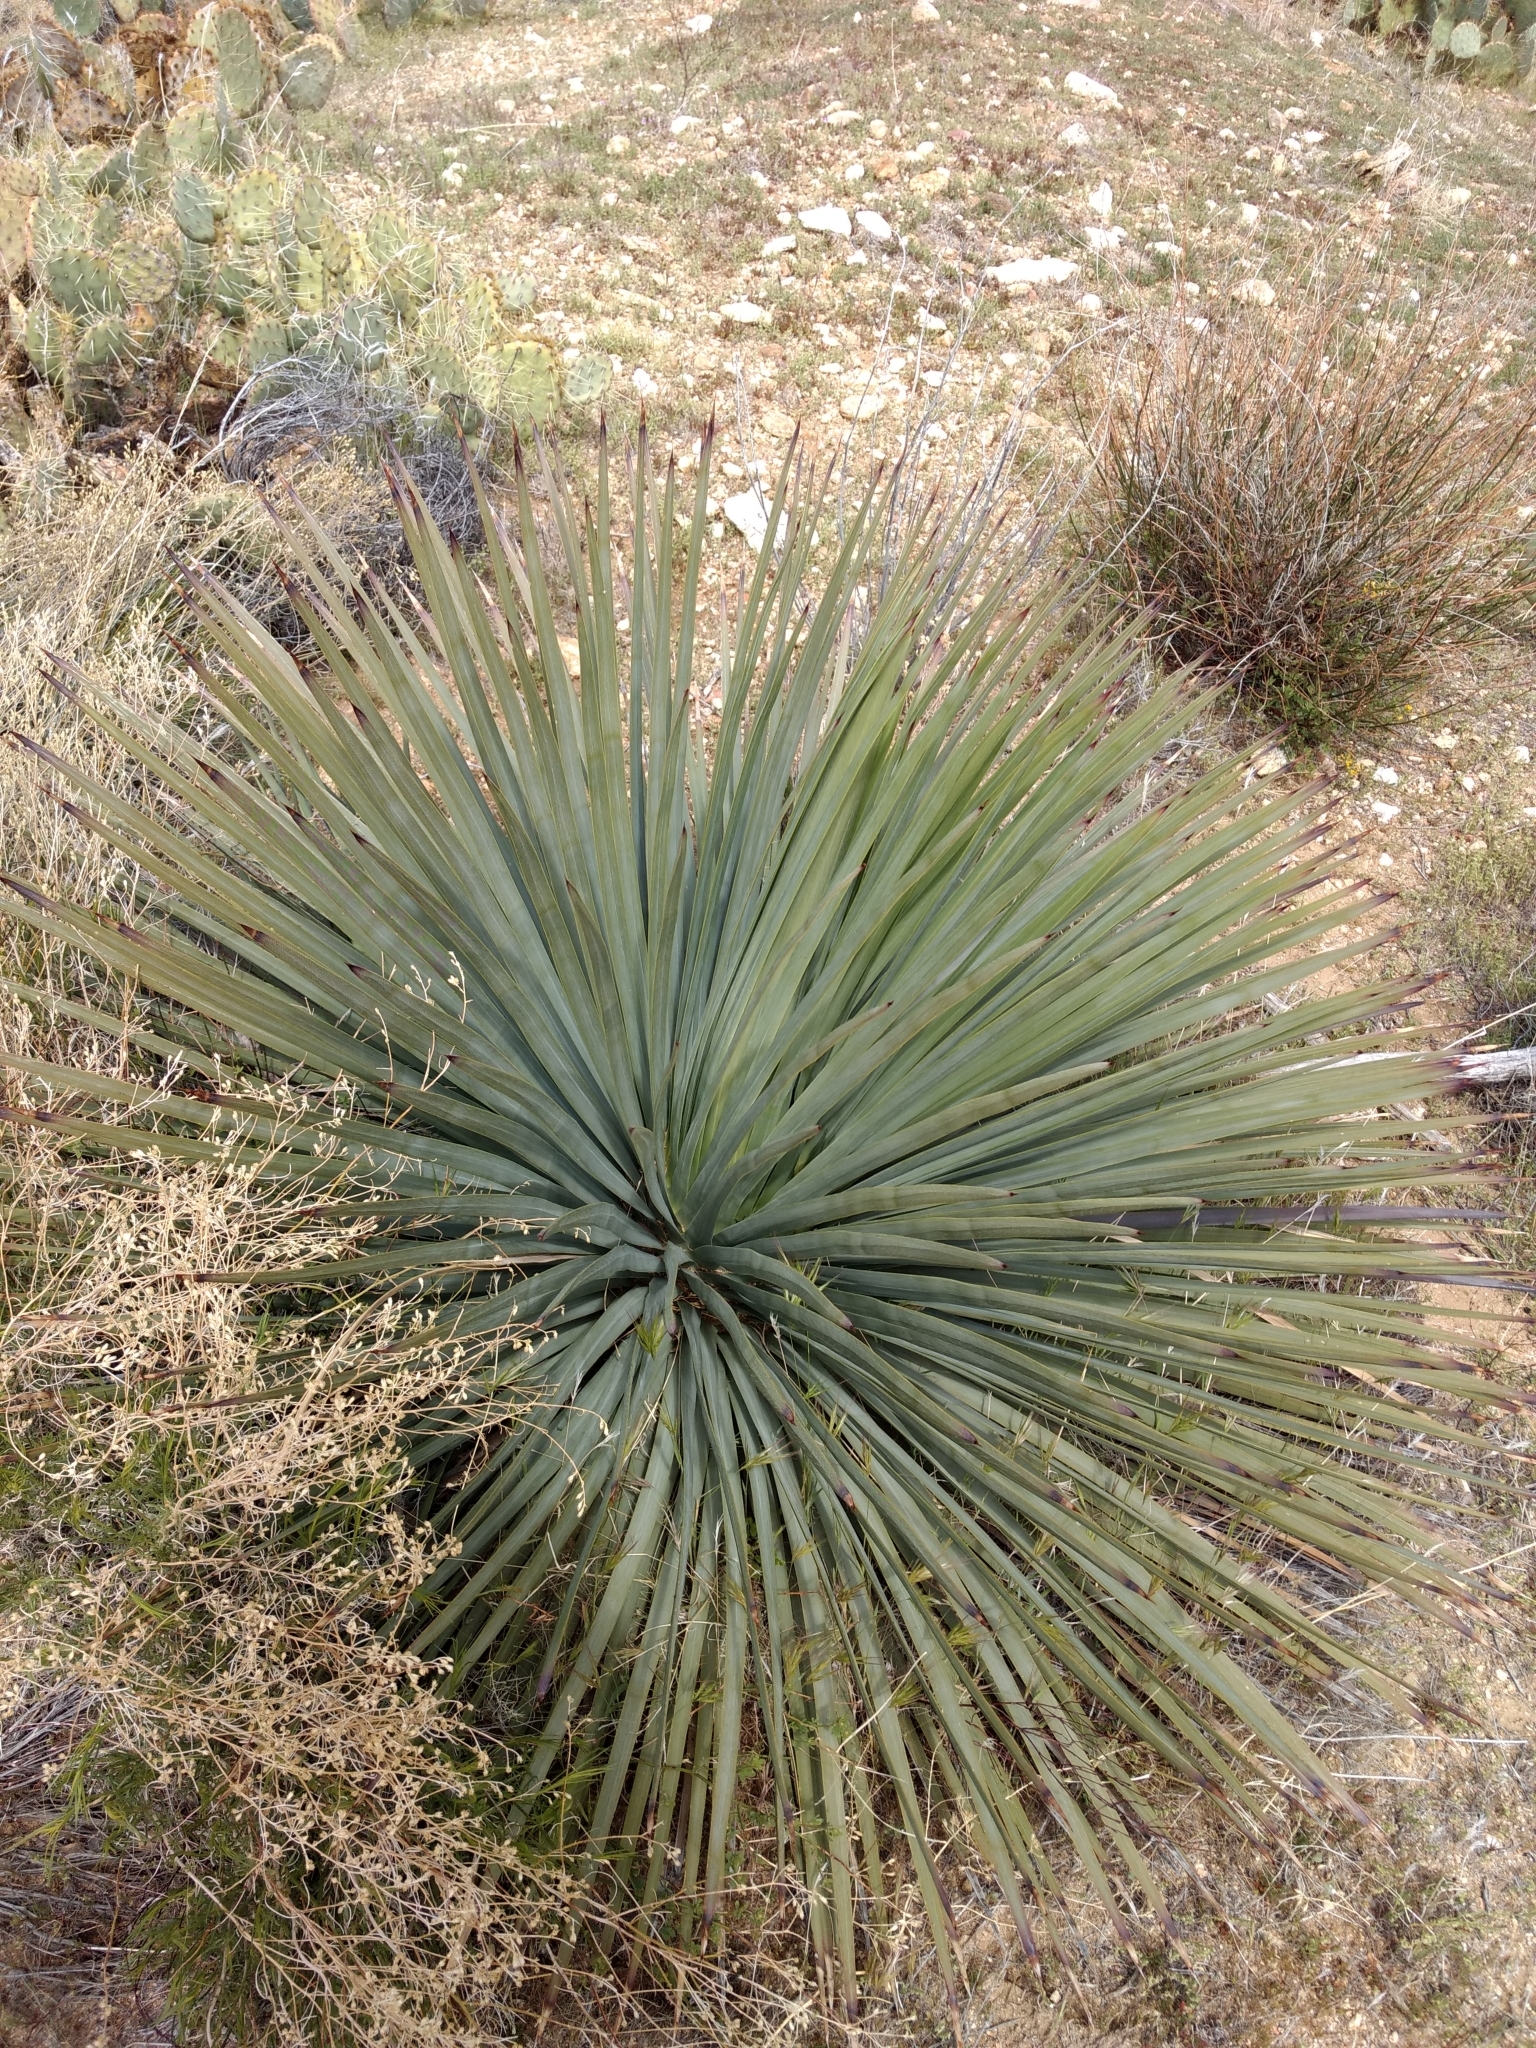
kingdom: Plantae
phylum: Tracheophyta
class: Liliopsida
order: Asparagales
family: Asparagaceae
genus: Hesperoyucca
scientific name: Hesperoyucca whipplei
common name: Our lord's-candle
